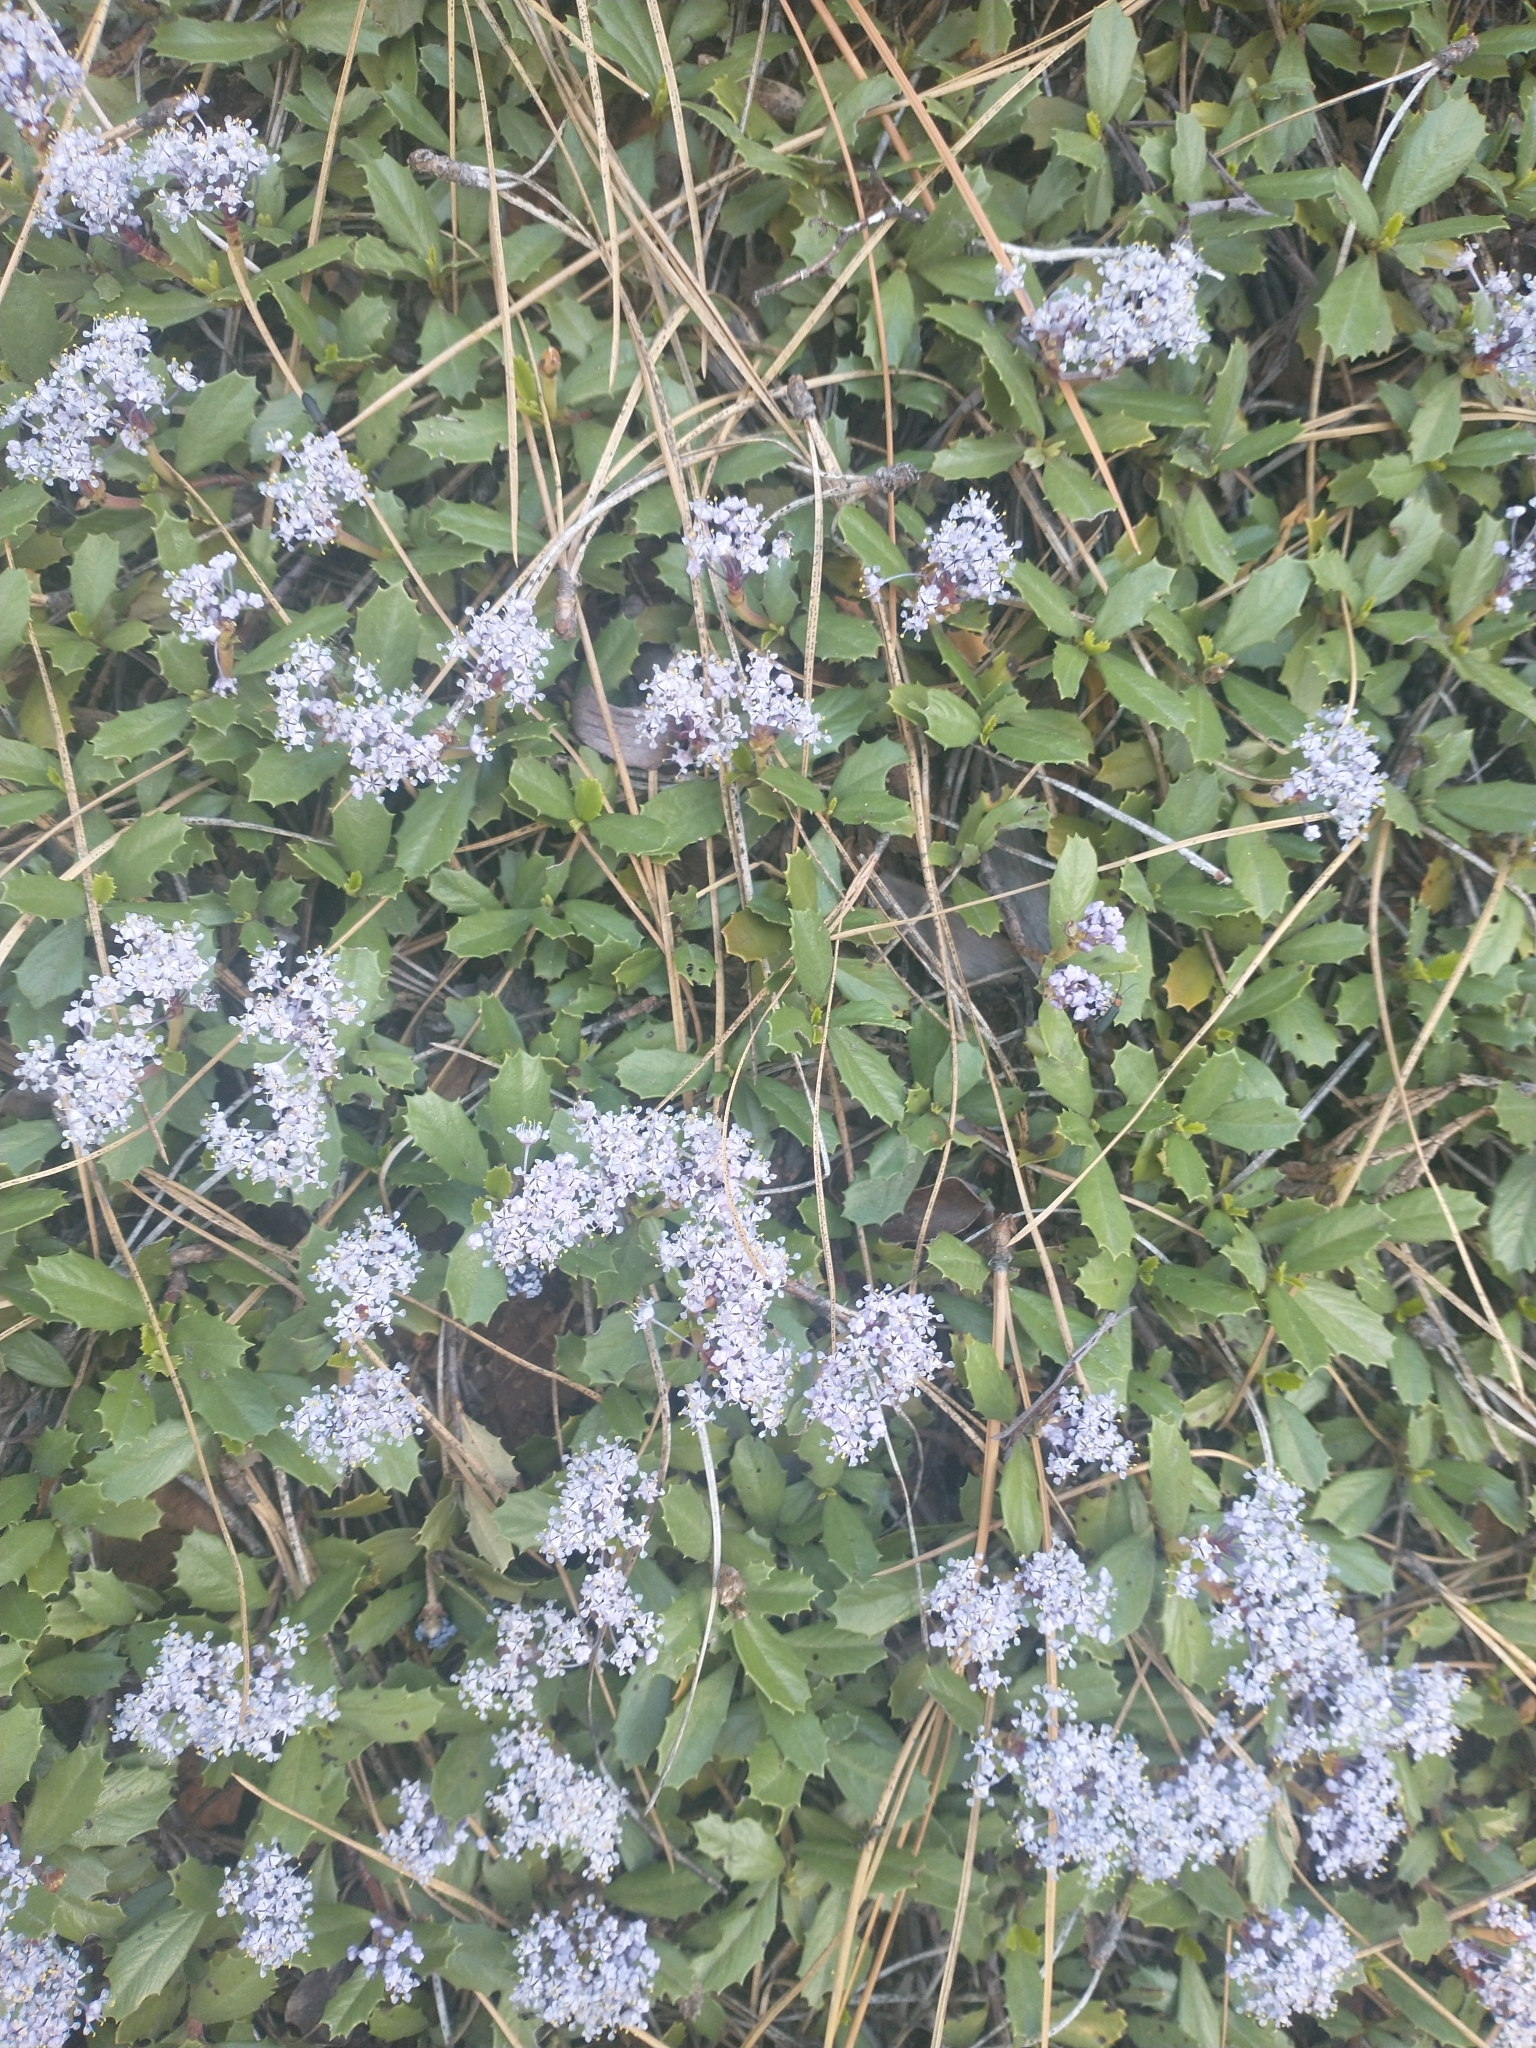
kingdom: Plantae
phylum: Tracheophyta
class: Magnoliopsida
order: Rosales
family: Rhamnaceae
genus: Ceanothus
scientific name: Ceanothus prostratus
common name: Mahala-mat
